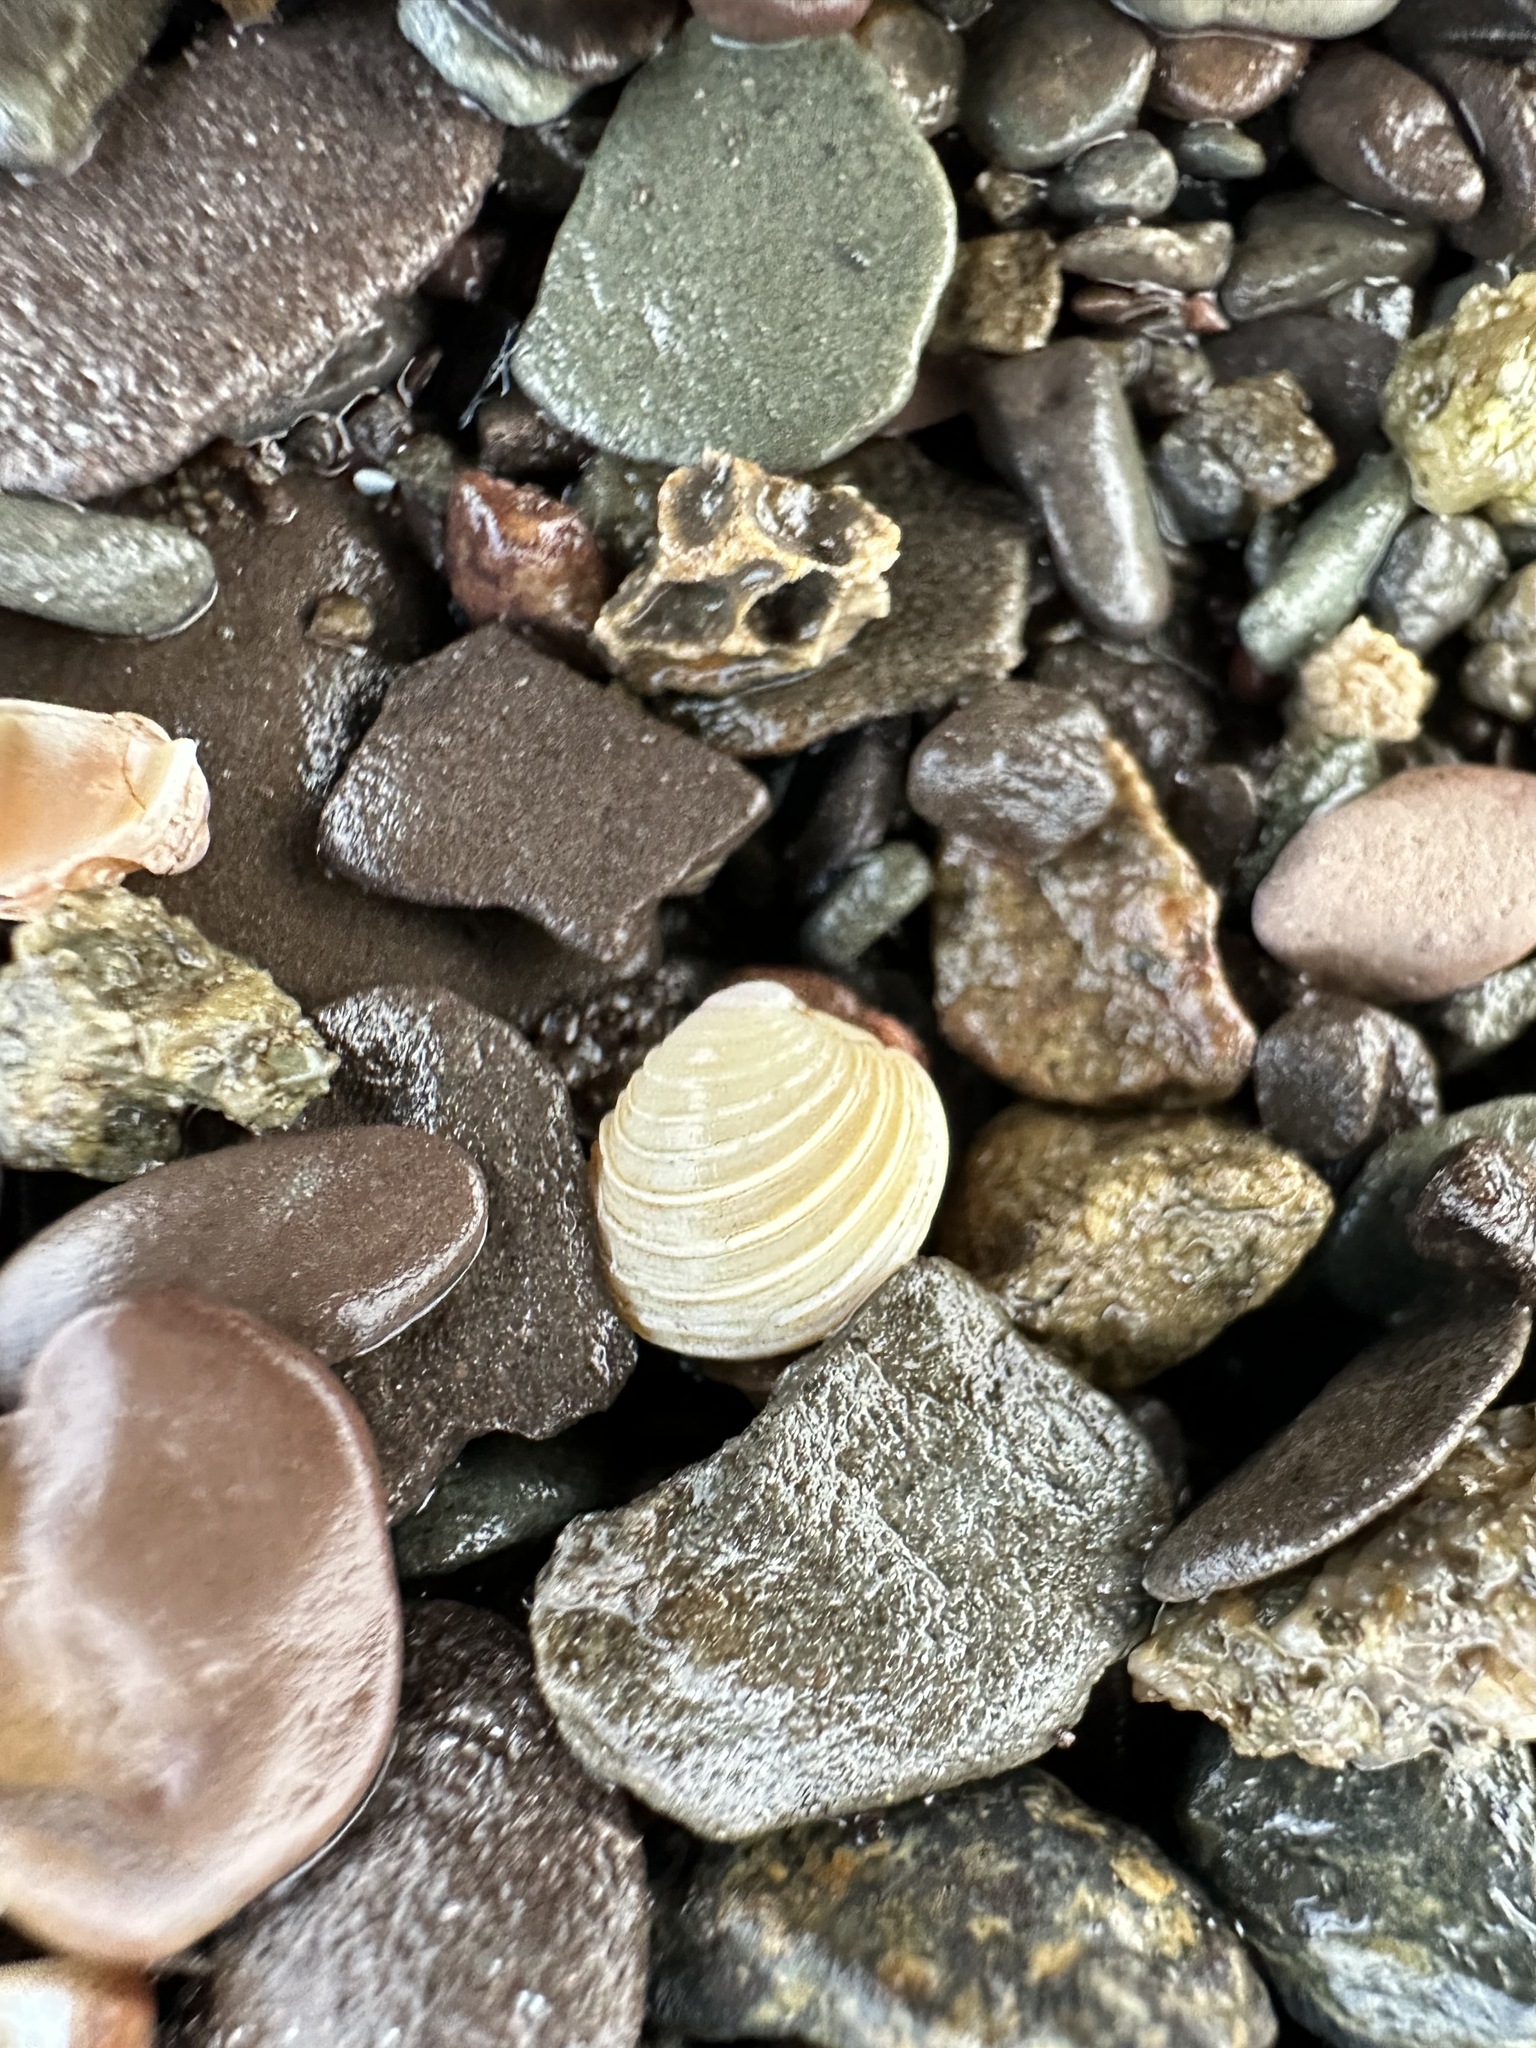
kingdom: Animalia
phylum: Mollusca
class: Bivalvia
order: Venerida
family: Veneridae
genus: Mercenaria
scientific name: Mercenaria mercenaria
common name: American hard-shelled clam
